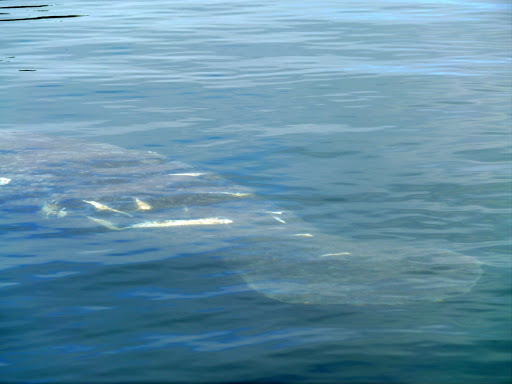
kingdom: Animalia
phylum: Chordata
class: Mammalia
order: Sirenia
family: Trichechidae
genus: Trichechus
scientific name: Trichechus manatus
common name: West indian manatee
